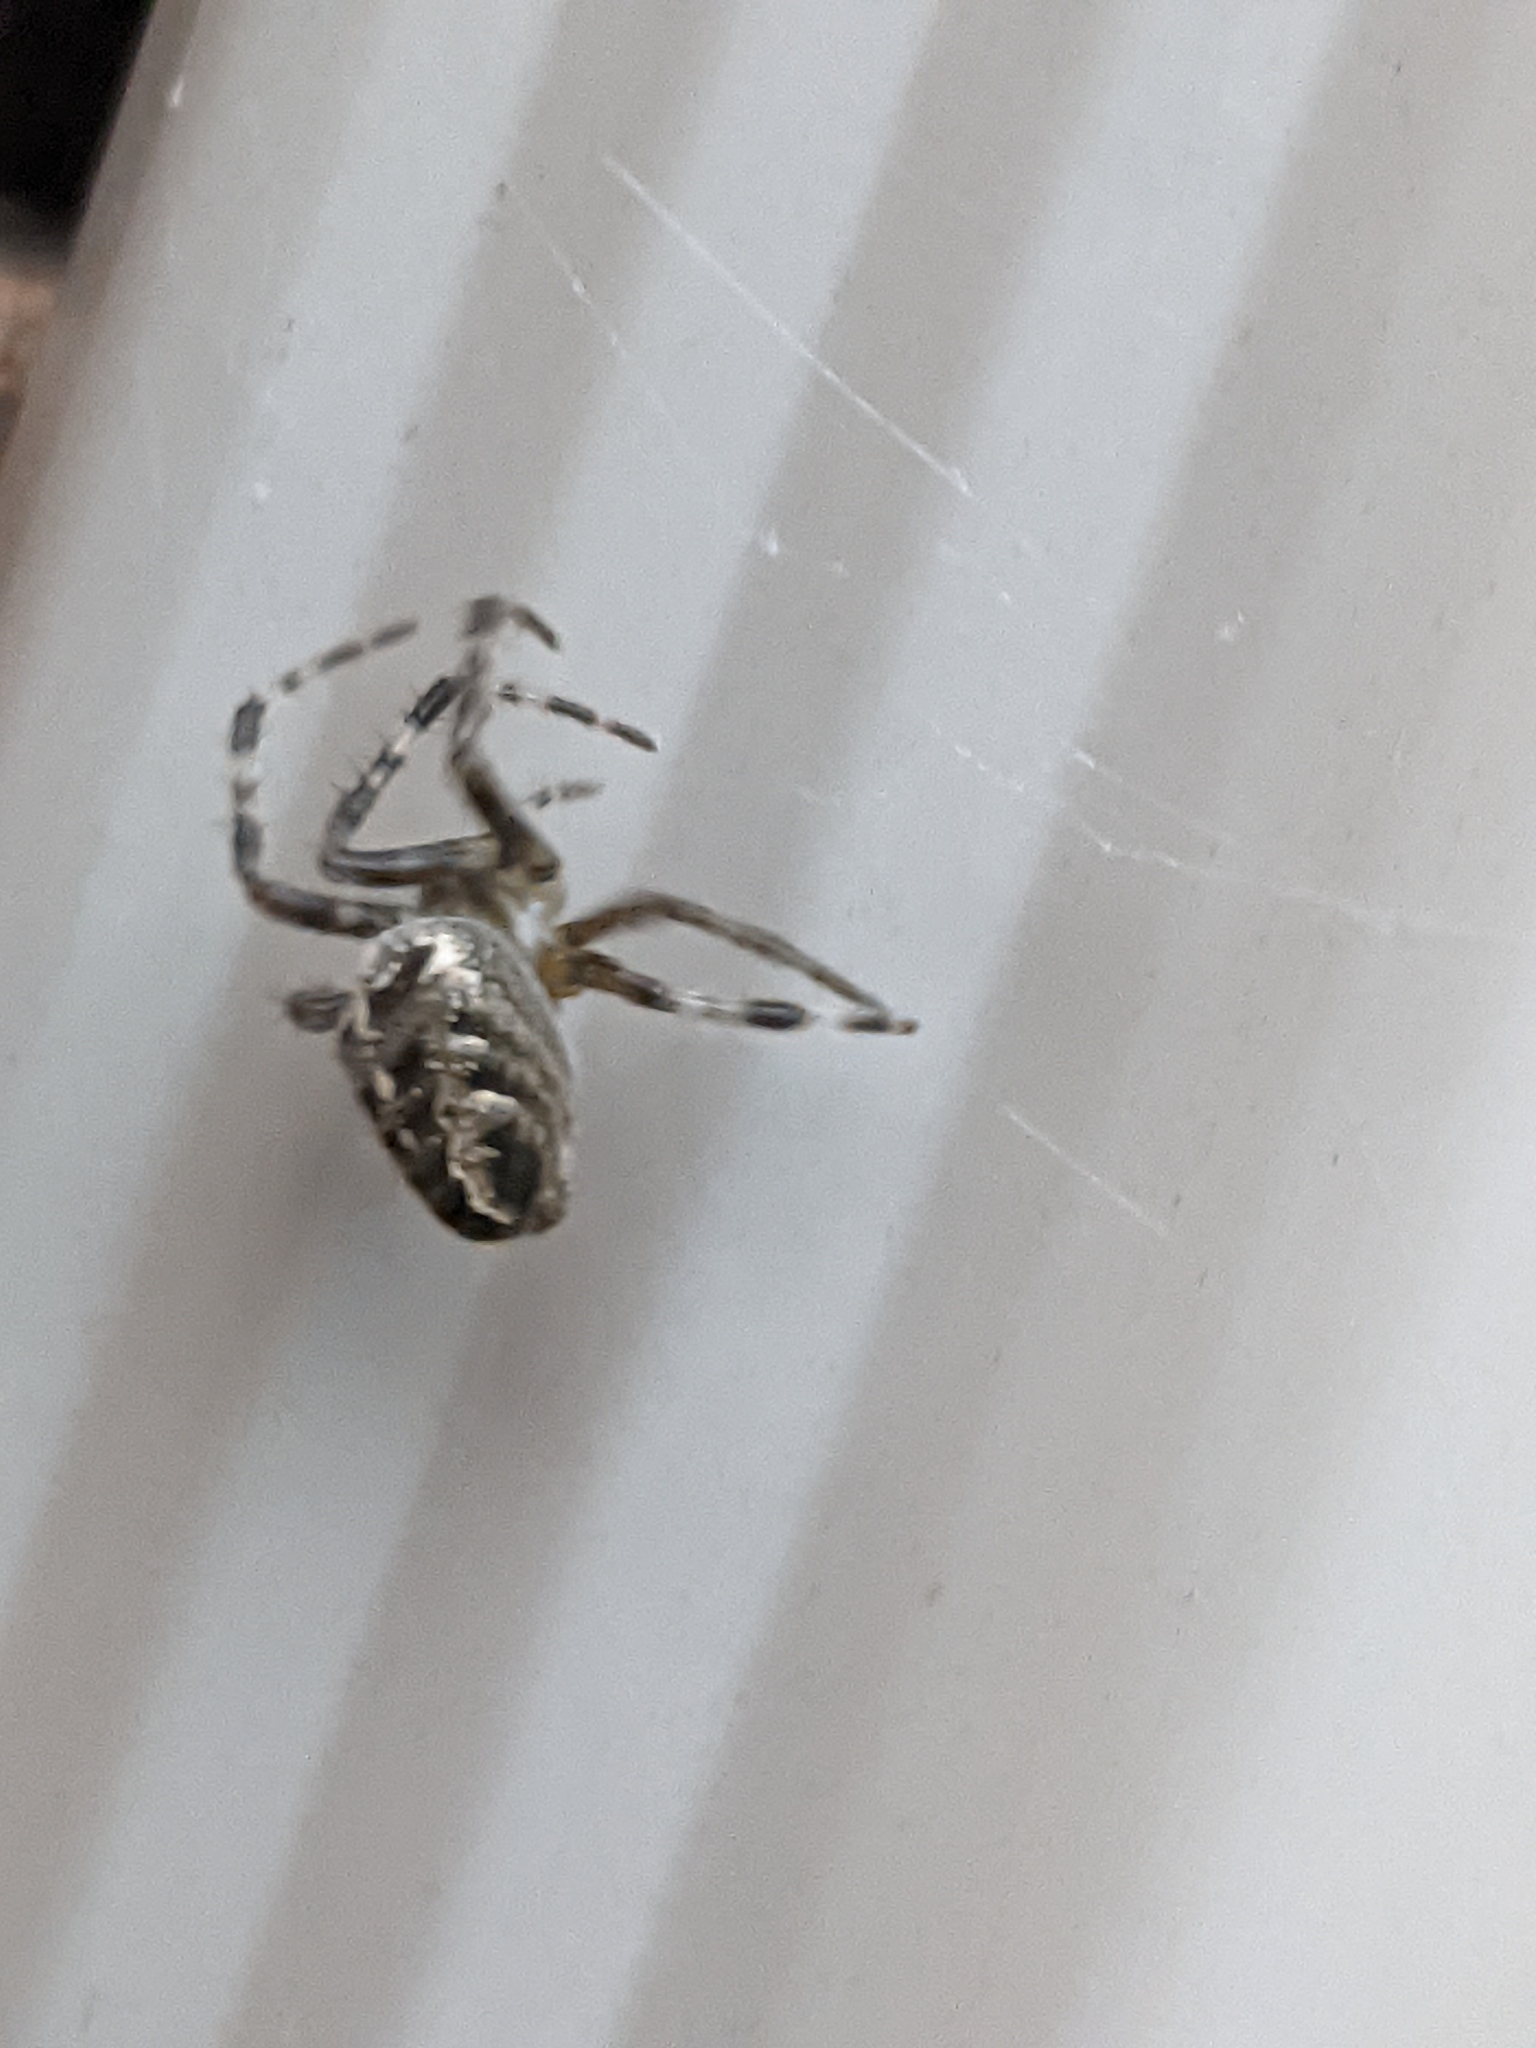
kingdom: Animalia
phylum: Arthropoda
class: Arachnida
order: Araneae
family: Araneidae
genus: Araneus
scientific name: Araneus diadematus
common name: Cross orbweaver
